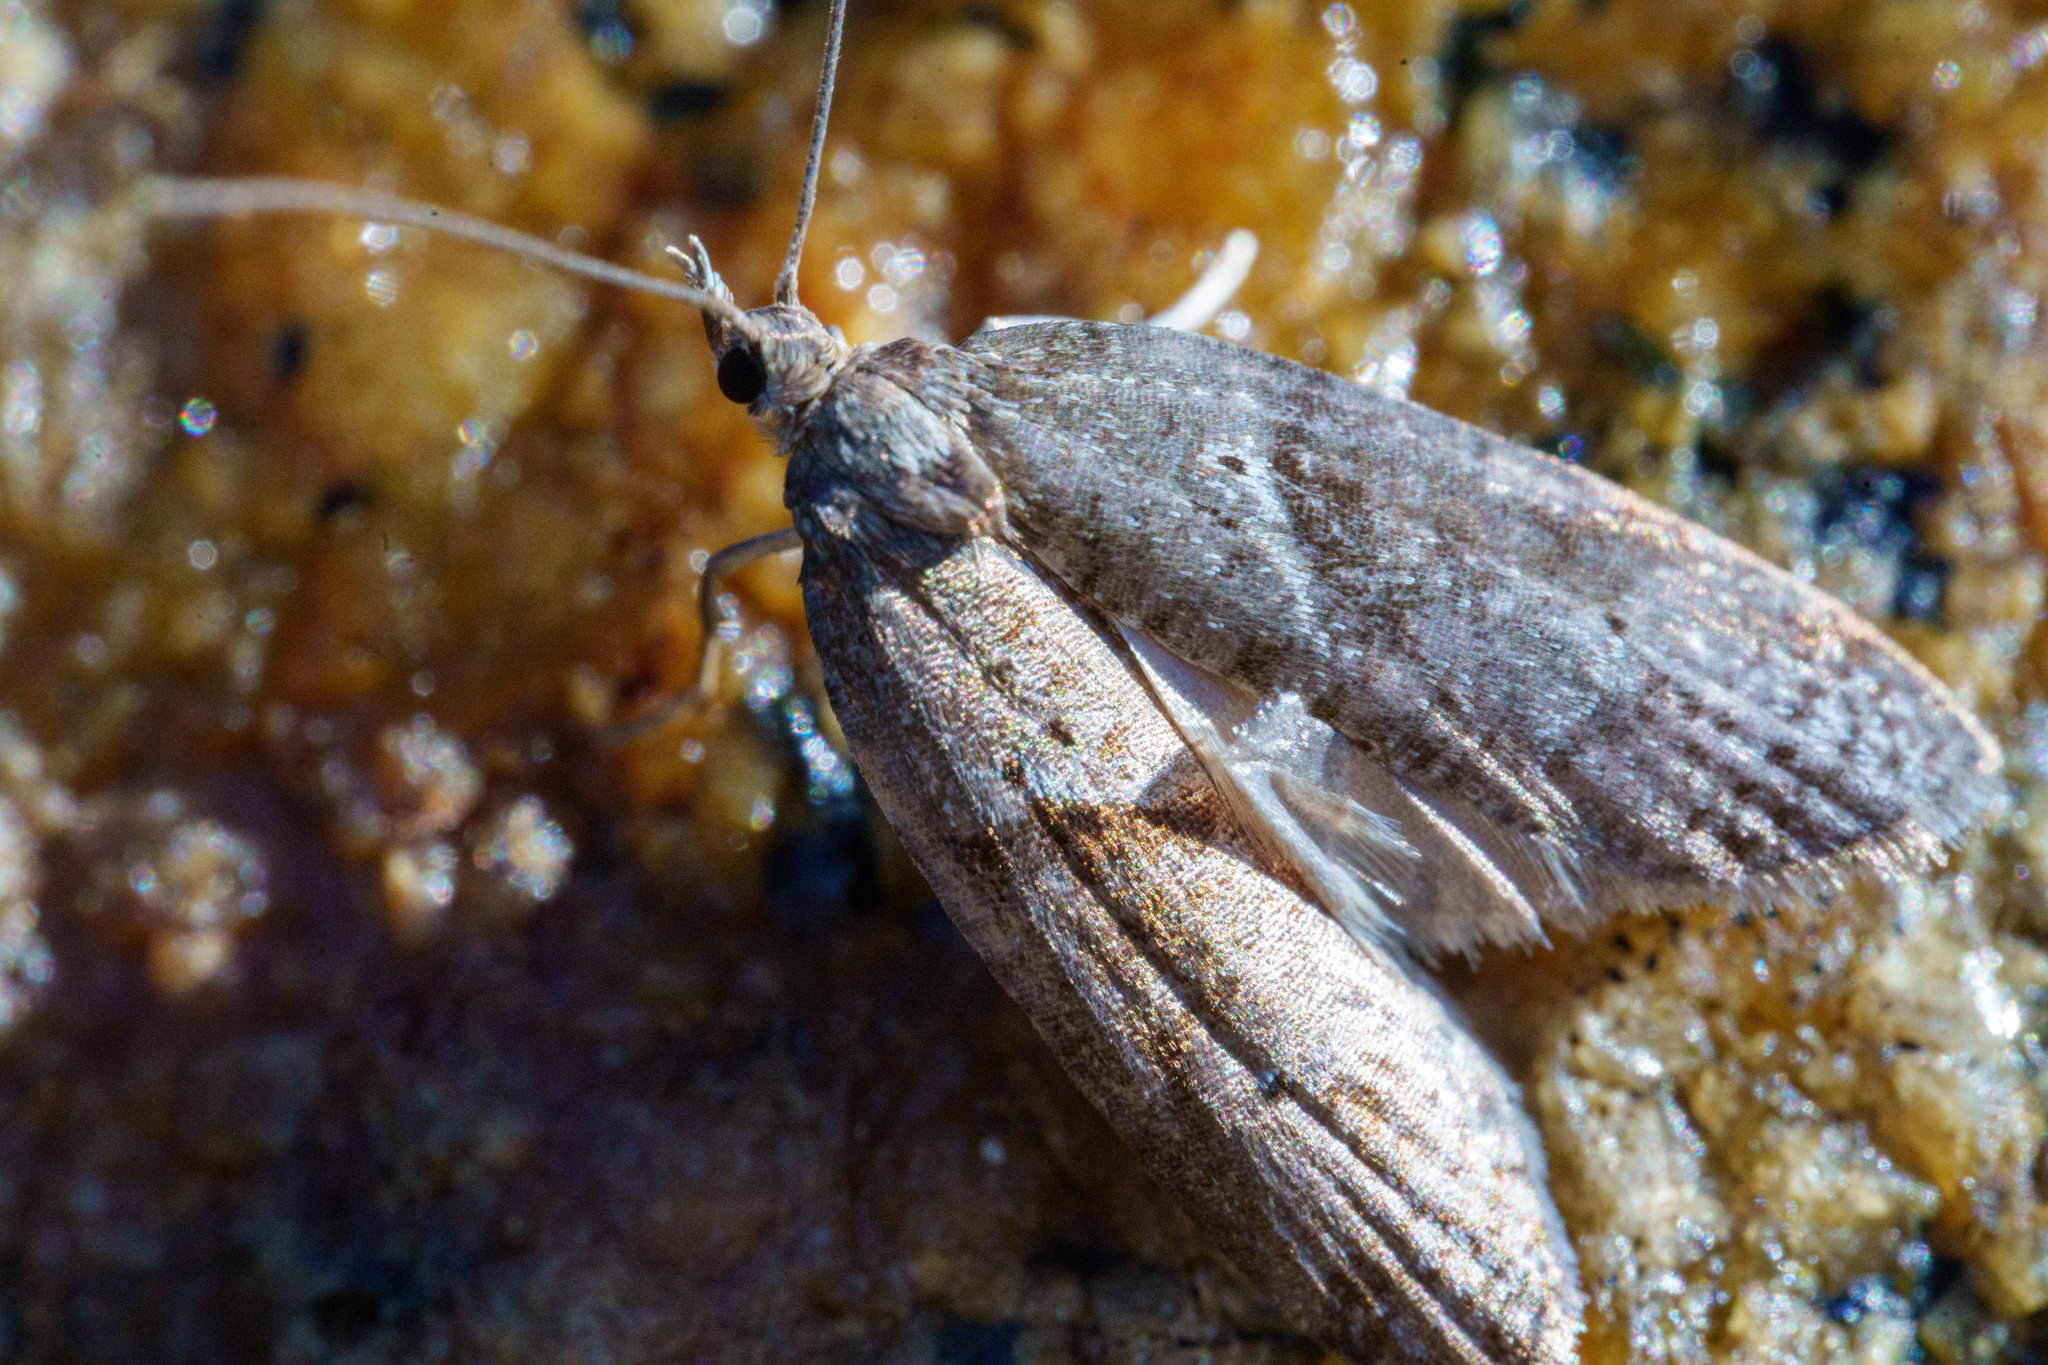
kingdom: Animalia
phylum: Arthropoda
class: Insecta
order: Lepidoptera
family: Copromorphidae
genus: Lotisma
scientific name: Lotisma trigonana
